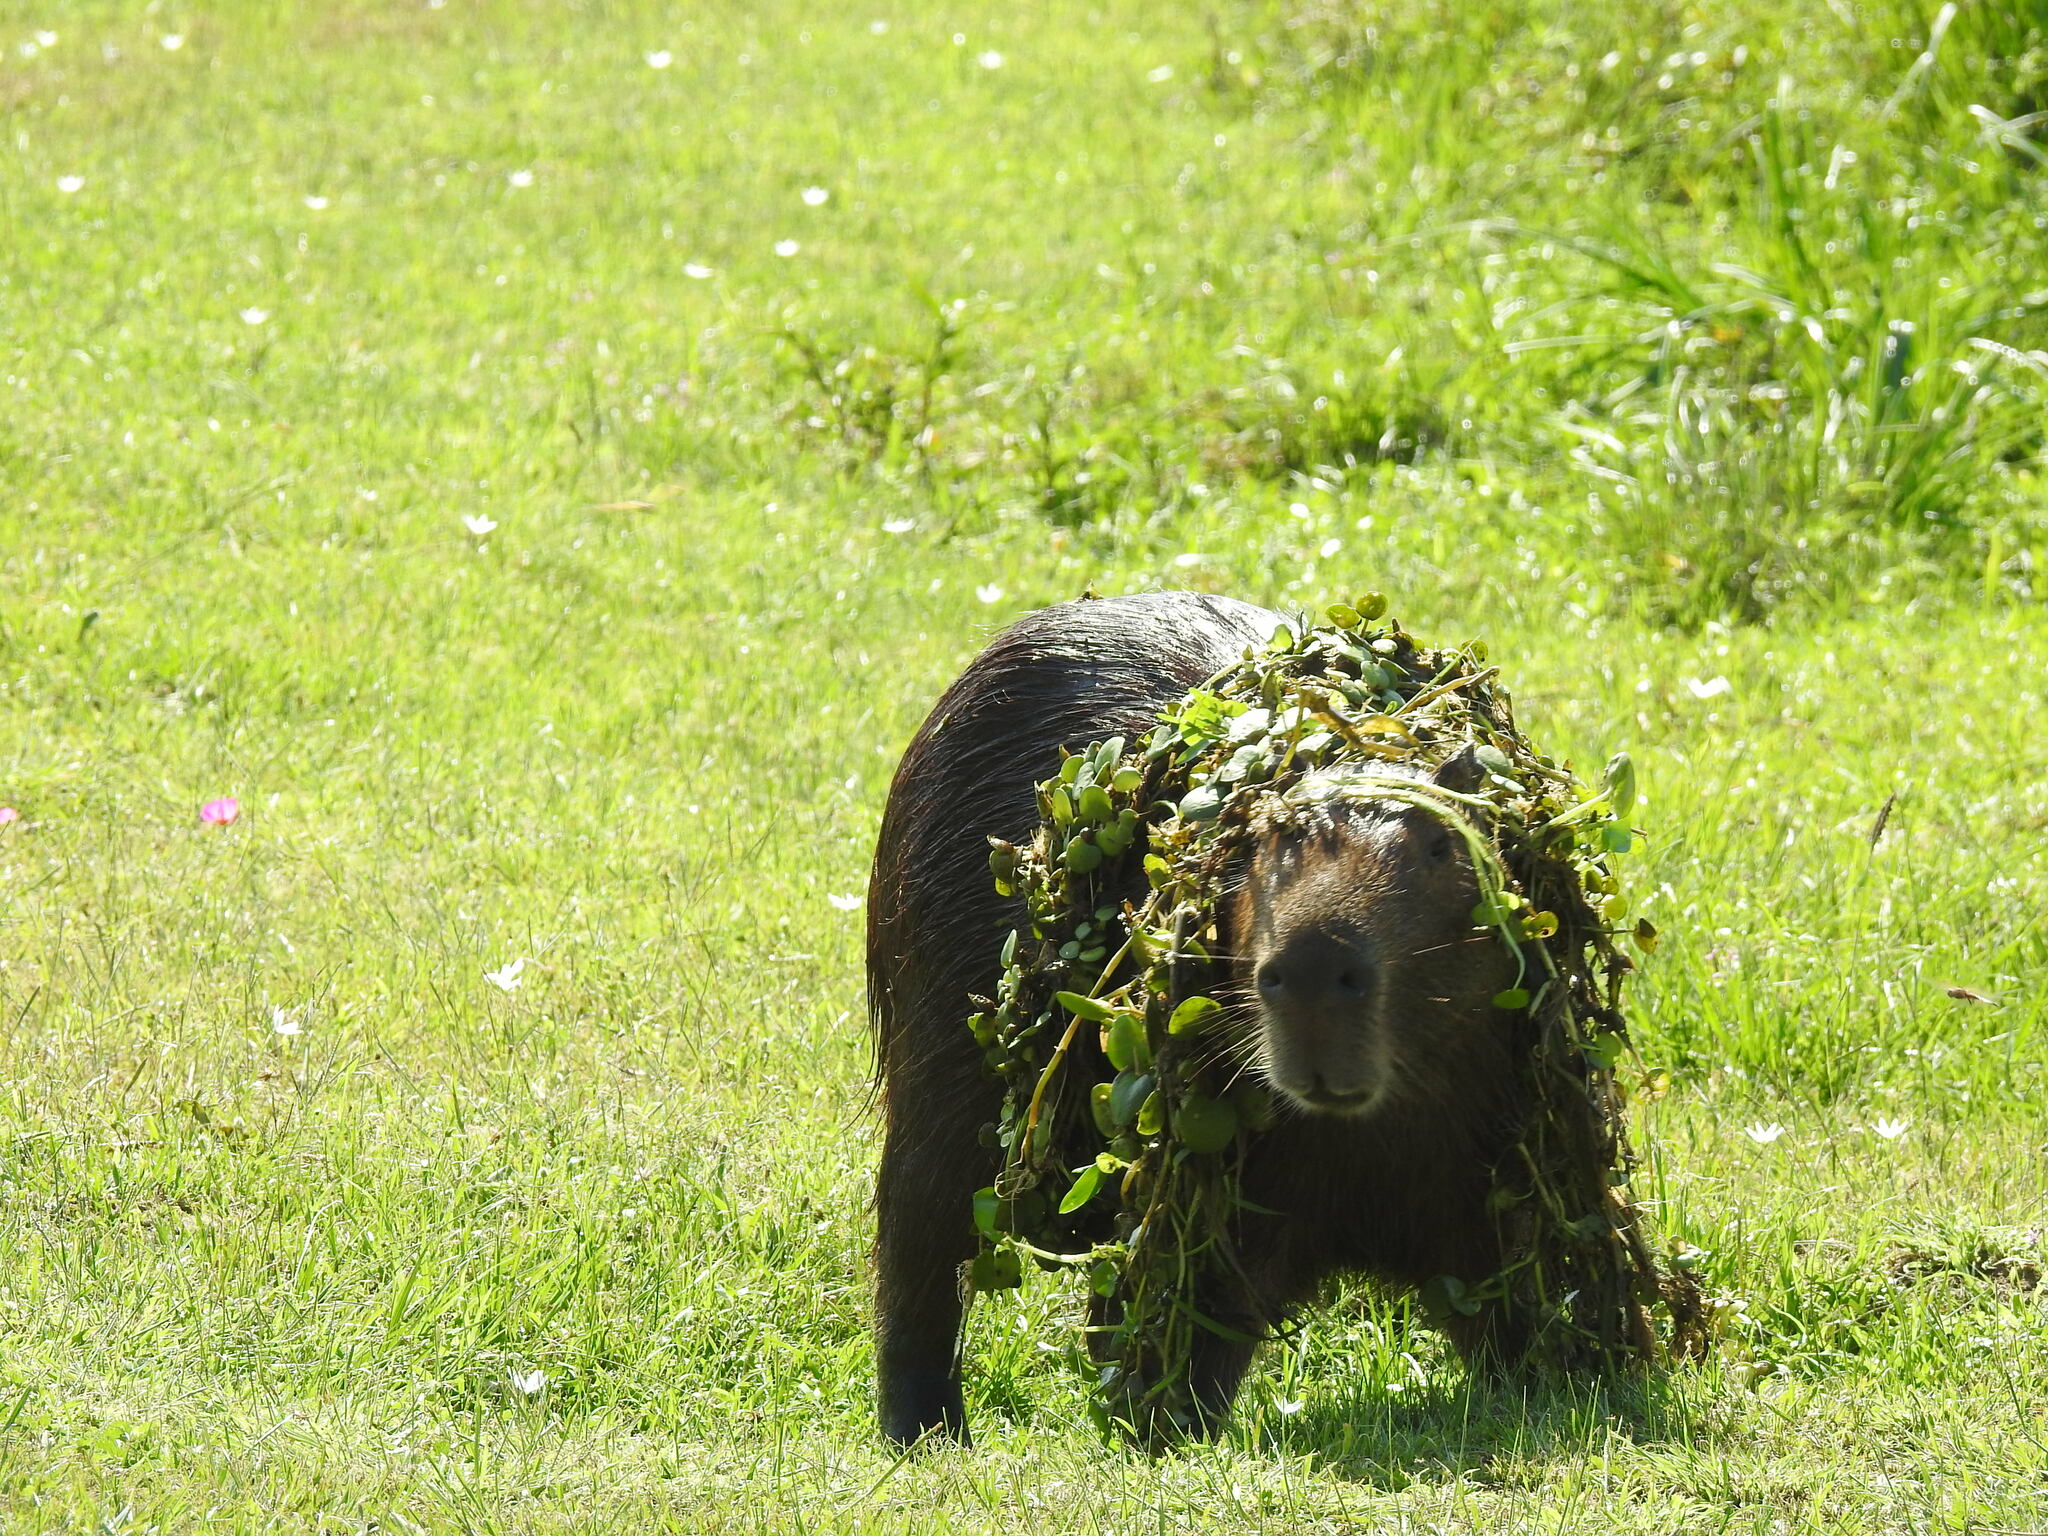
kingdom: Animalia
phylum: Chordata
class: Mammalia
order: Rodentia
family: Caviidae
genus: Hydrochoerus
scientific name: Hydrochoerus hydrochaeris
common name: Capybara
